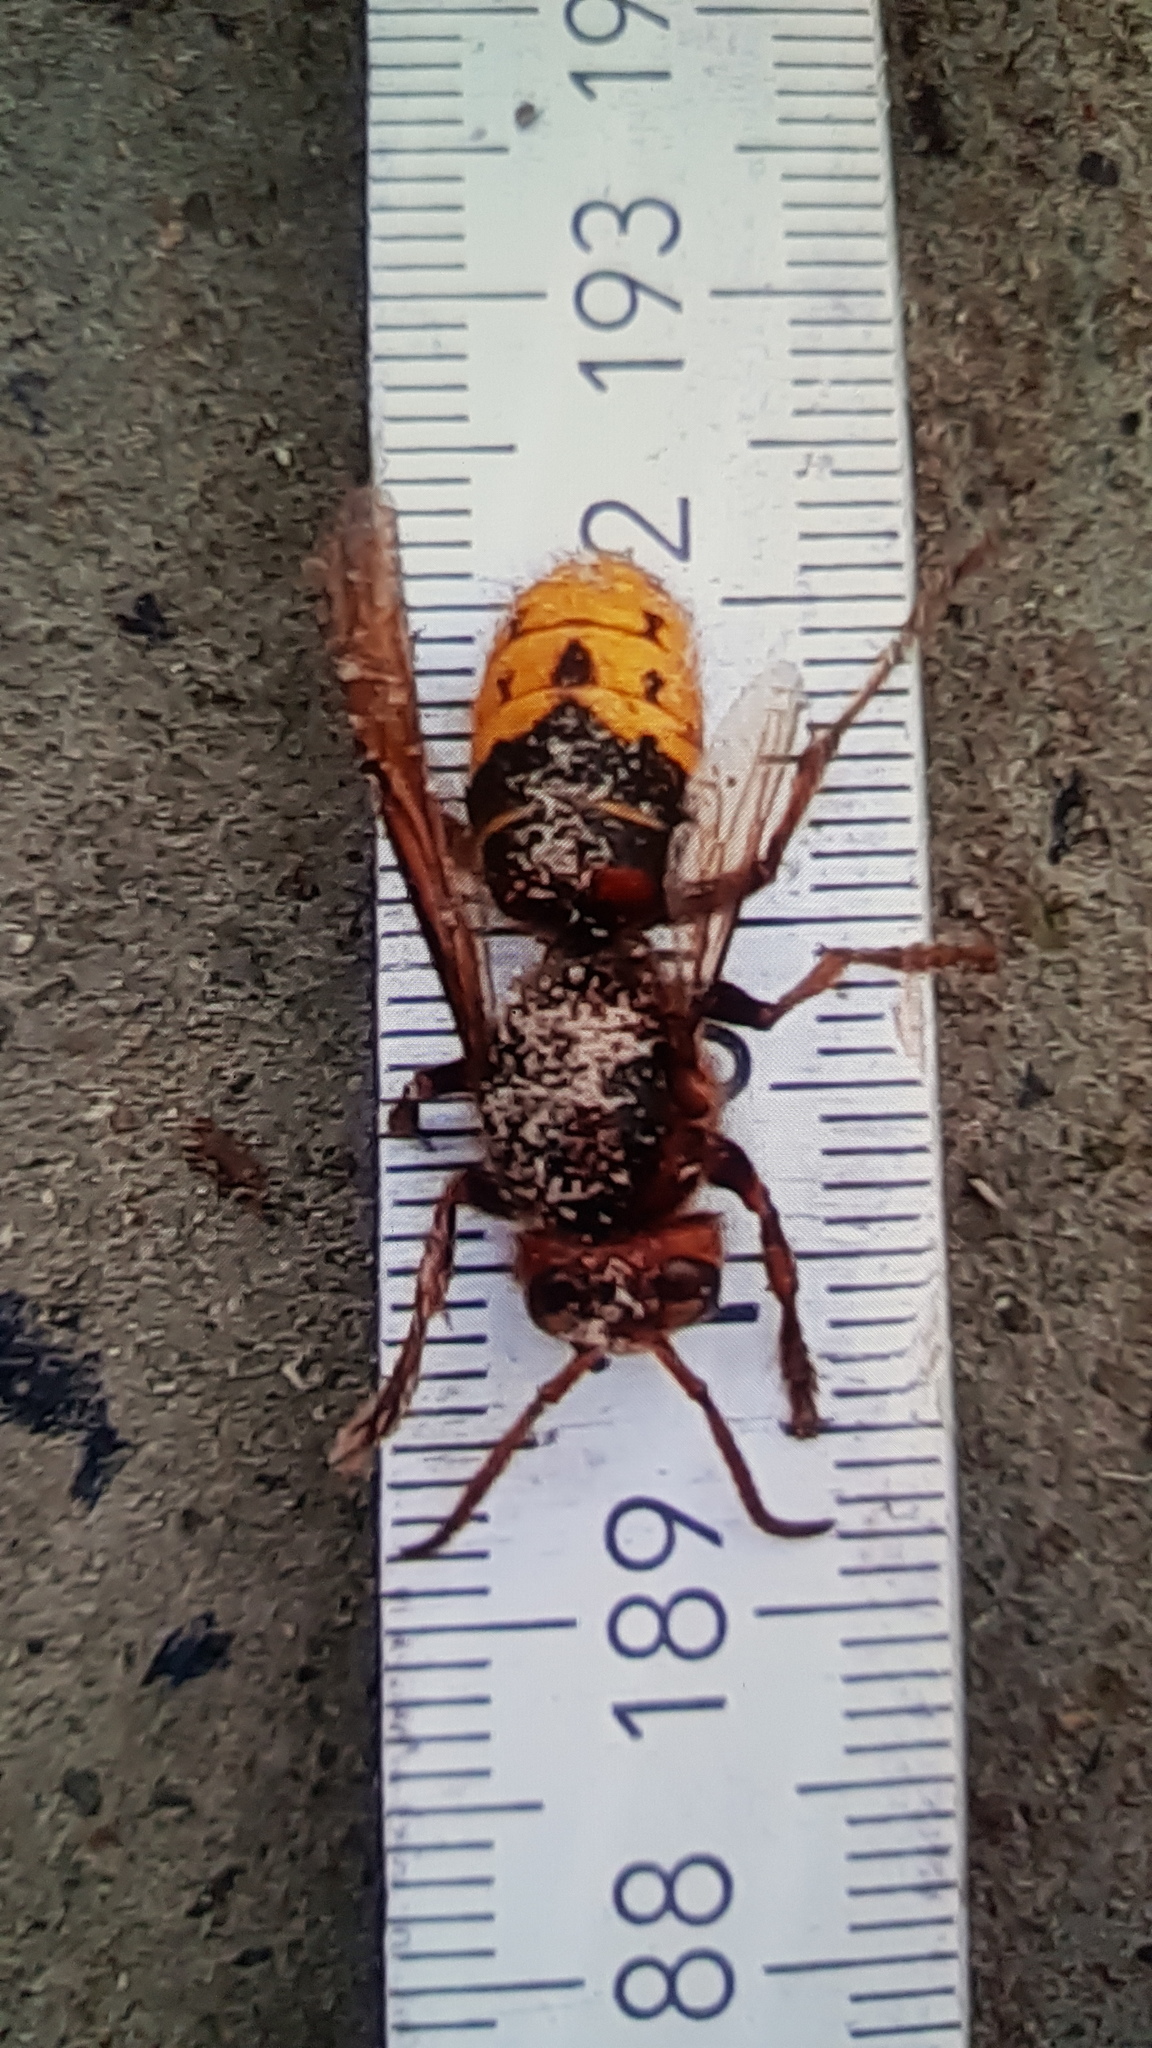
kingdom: Animalia
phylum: Arthropoda
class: Insecta
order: Hymenoptera
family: Vespidae
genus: Vespa
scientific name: Vespa crabro
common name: Hornet
